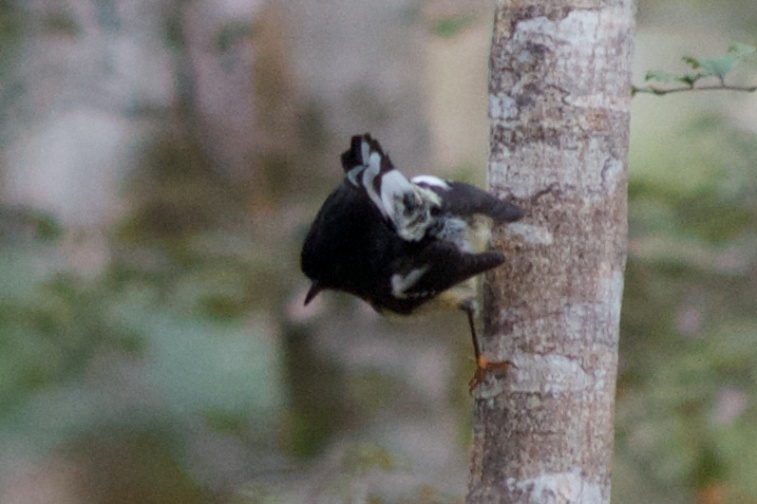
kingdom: Animalia
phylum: Chordata
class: Aves
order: Passeriformes
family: Petroicidae
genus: Petroica
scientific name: Petroica macrocephala
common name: Tomtit
